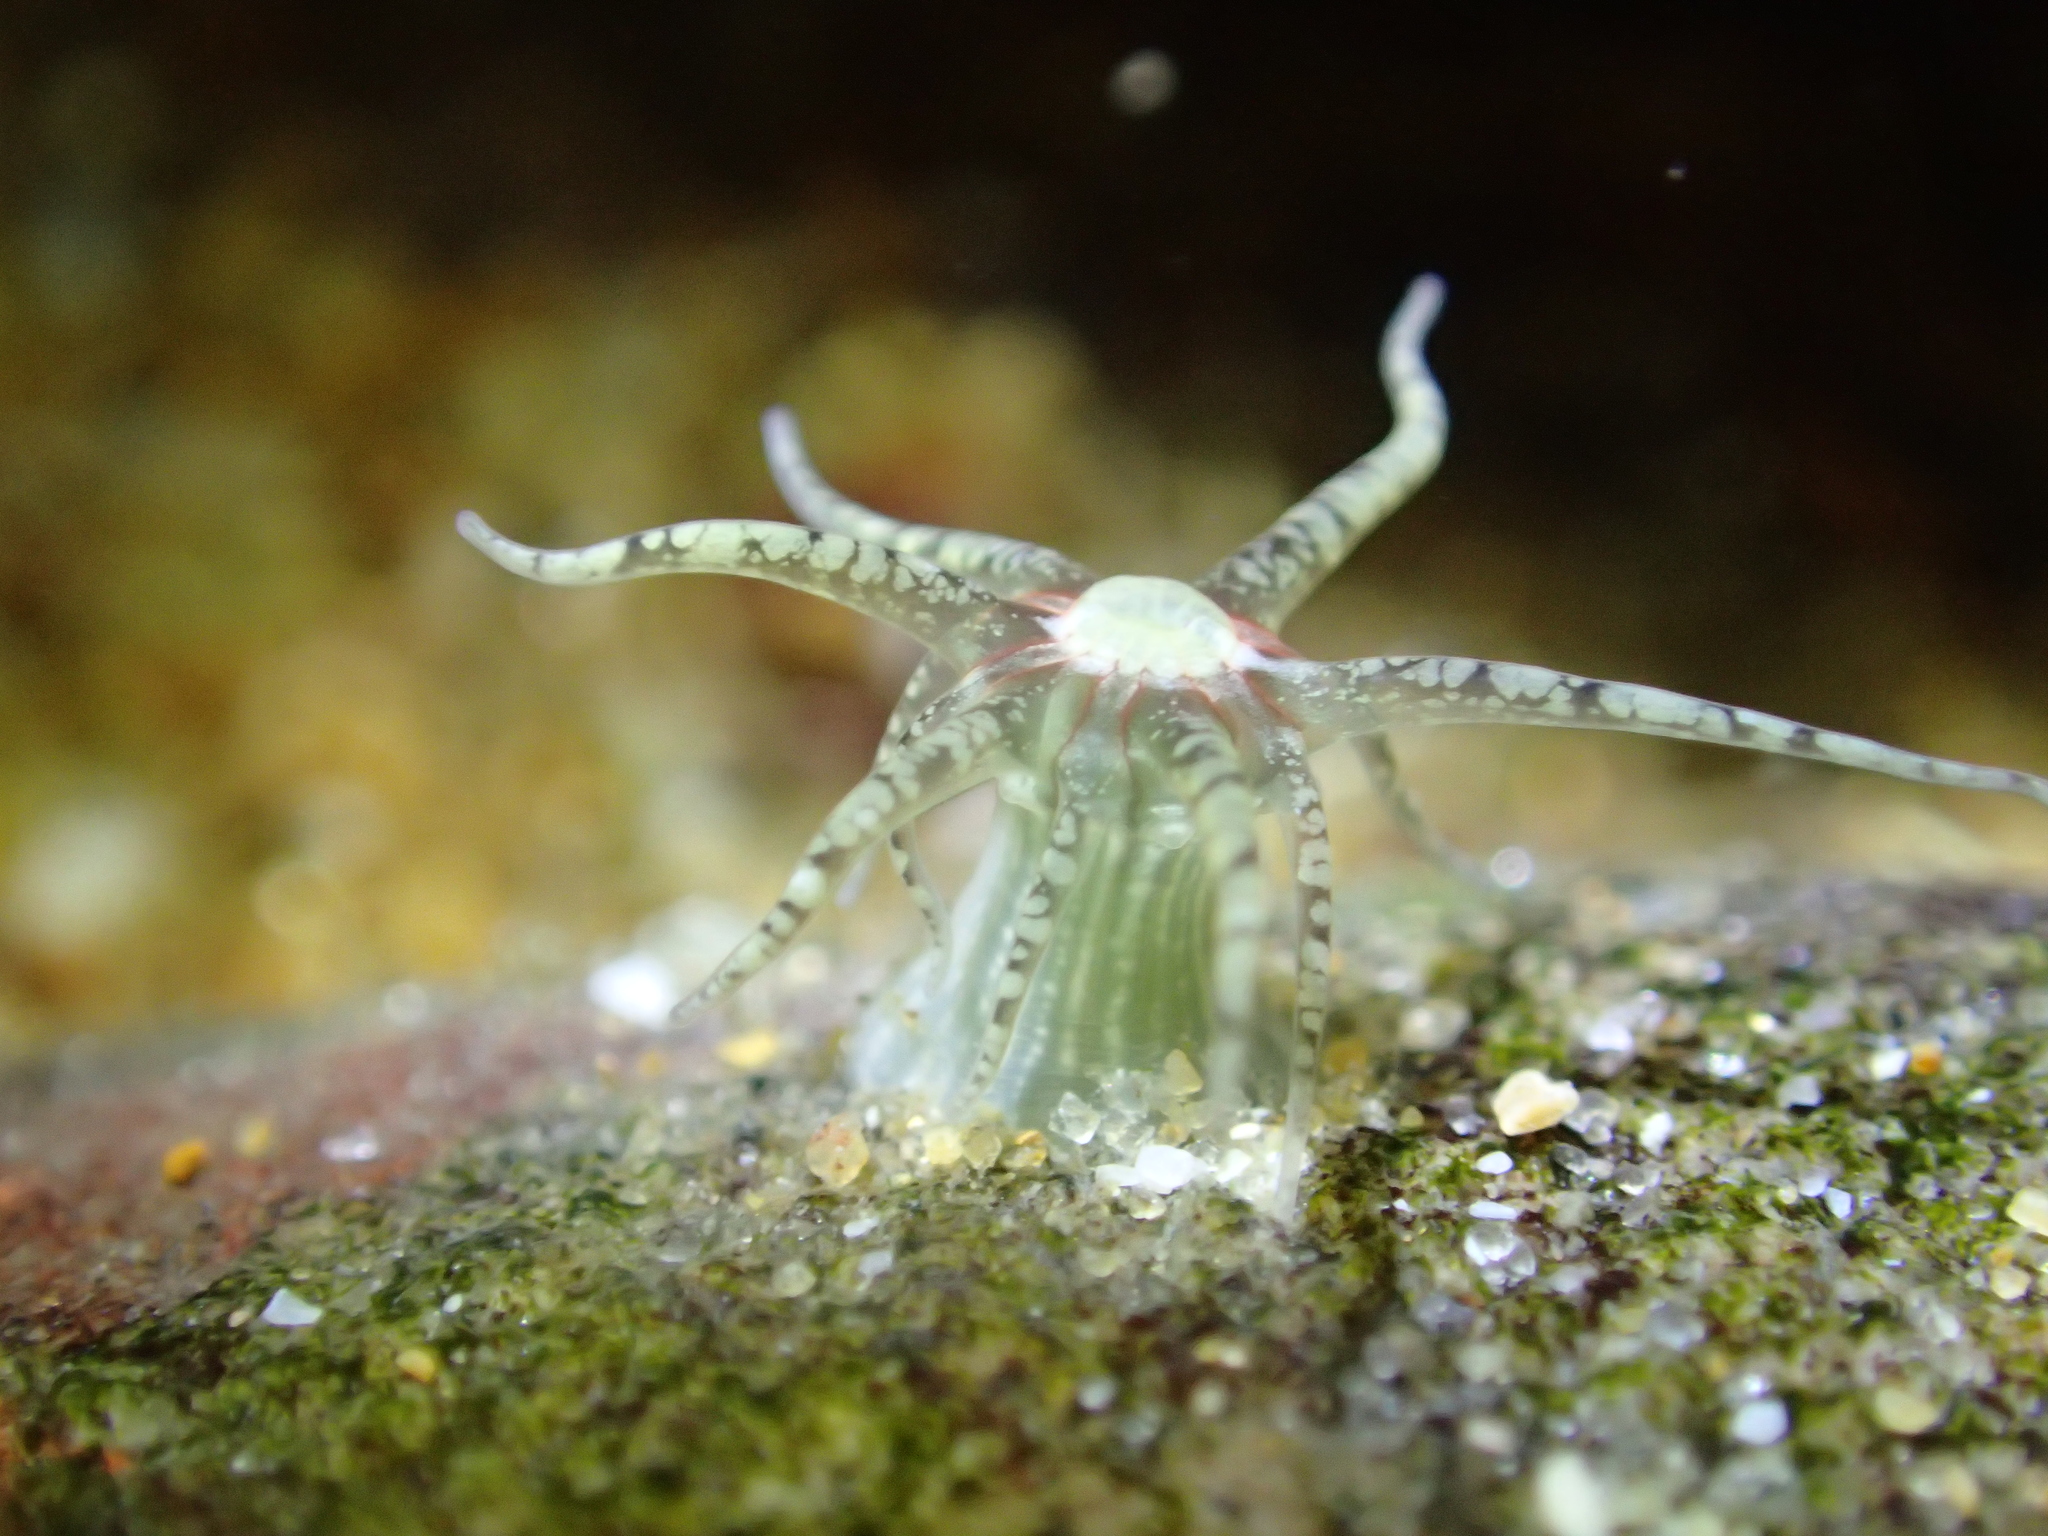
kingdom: Animalia
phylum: Cnidaria
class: Anthozoa
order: Actiniaria
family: Actiniidae
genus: Bunodactis
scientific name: Bunodactis verrucosa
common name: Gem anemone
